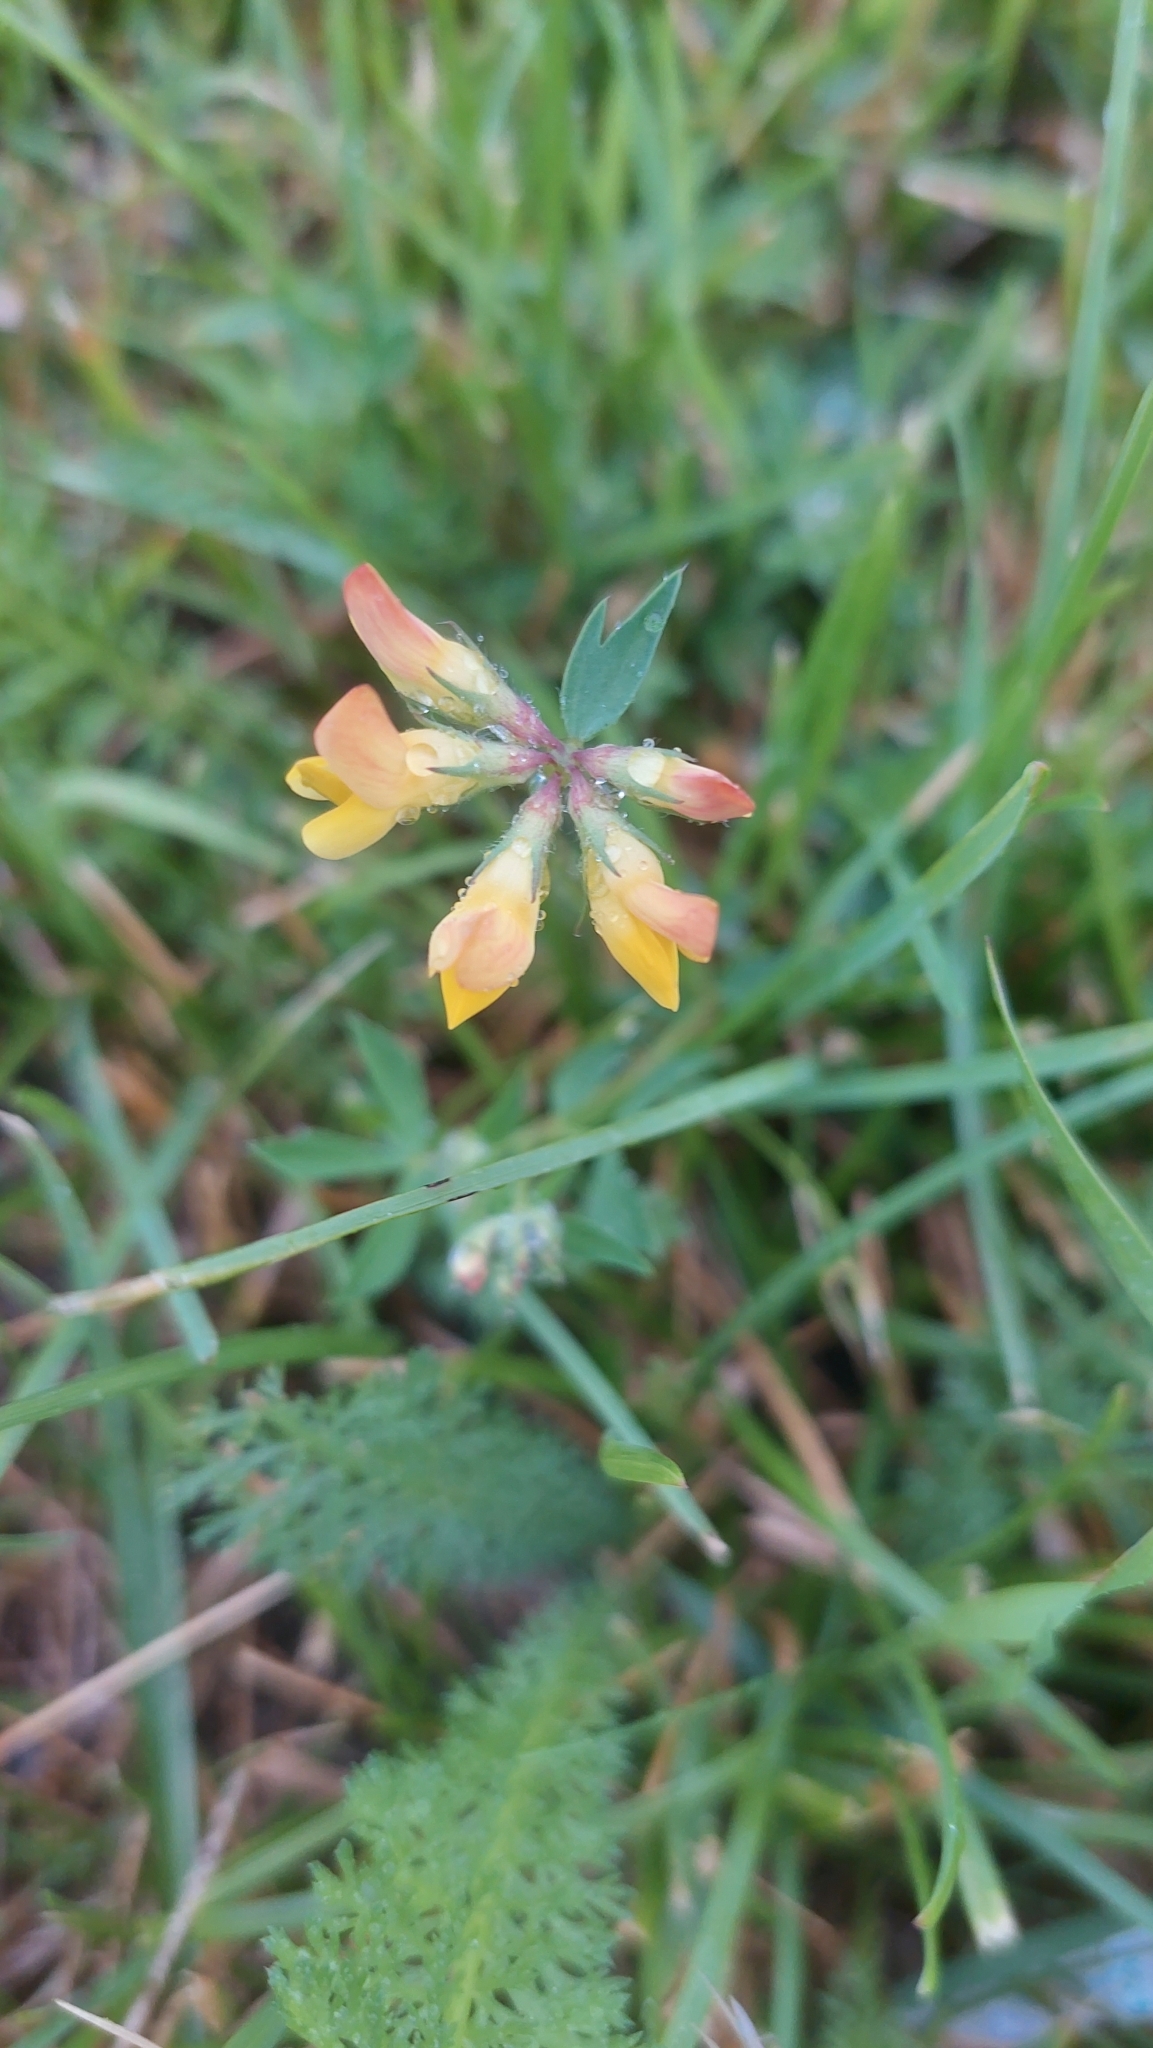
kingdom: Plantae
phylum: Tracheophyta
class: Magnoliopsida
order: Fabales
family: Fabaceae
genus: Lotus
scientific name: Lotus corniculatus
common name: Common bird's-foot-trefoil
